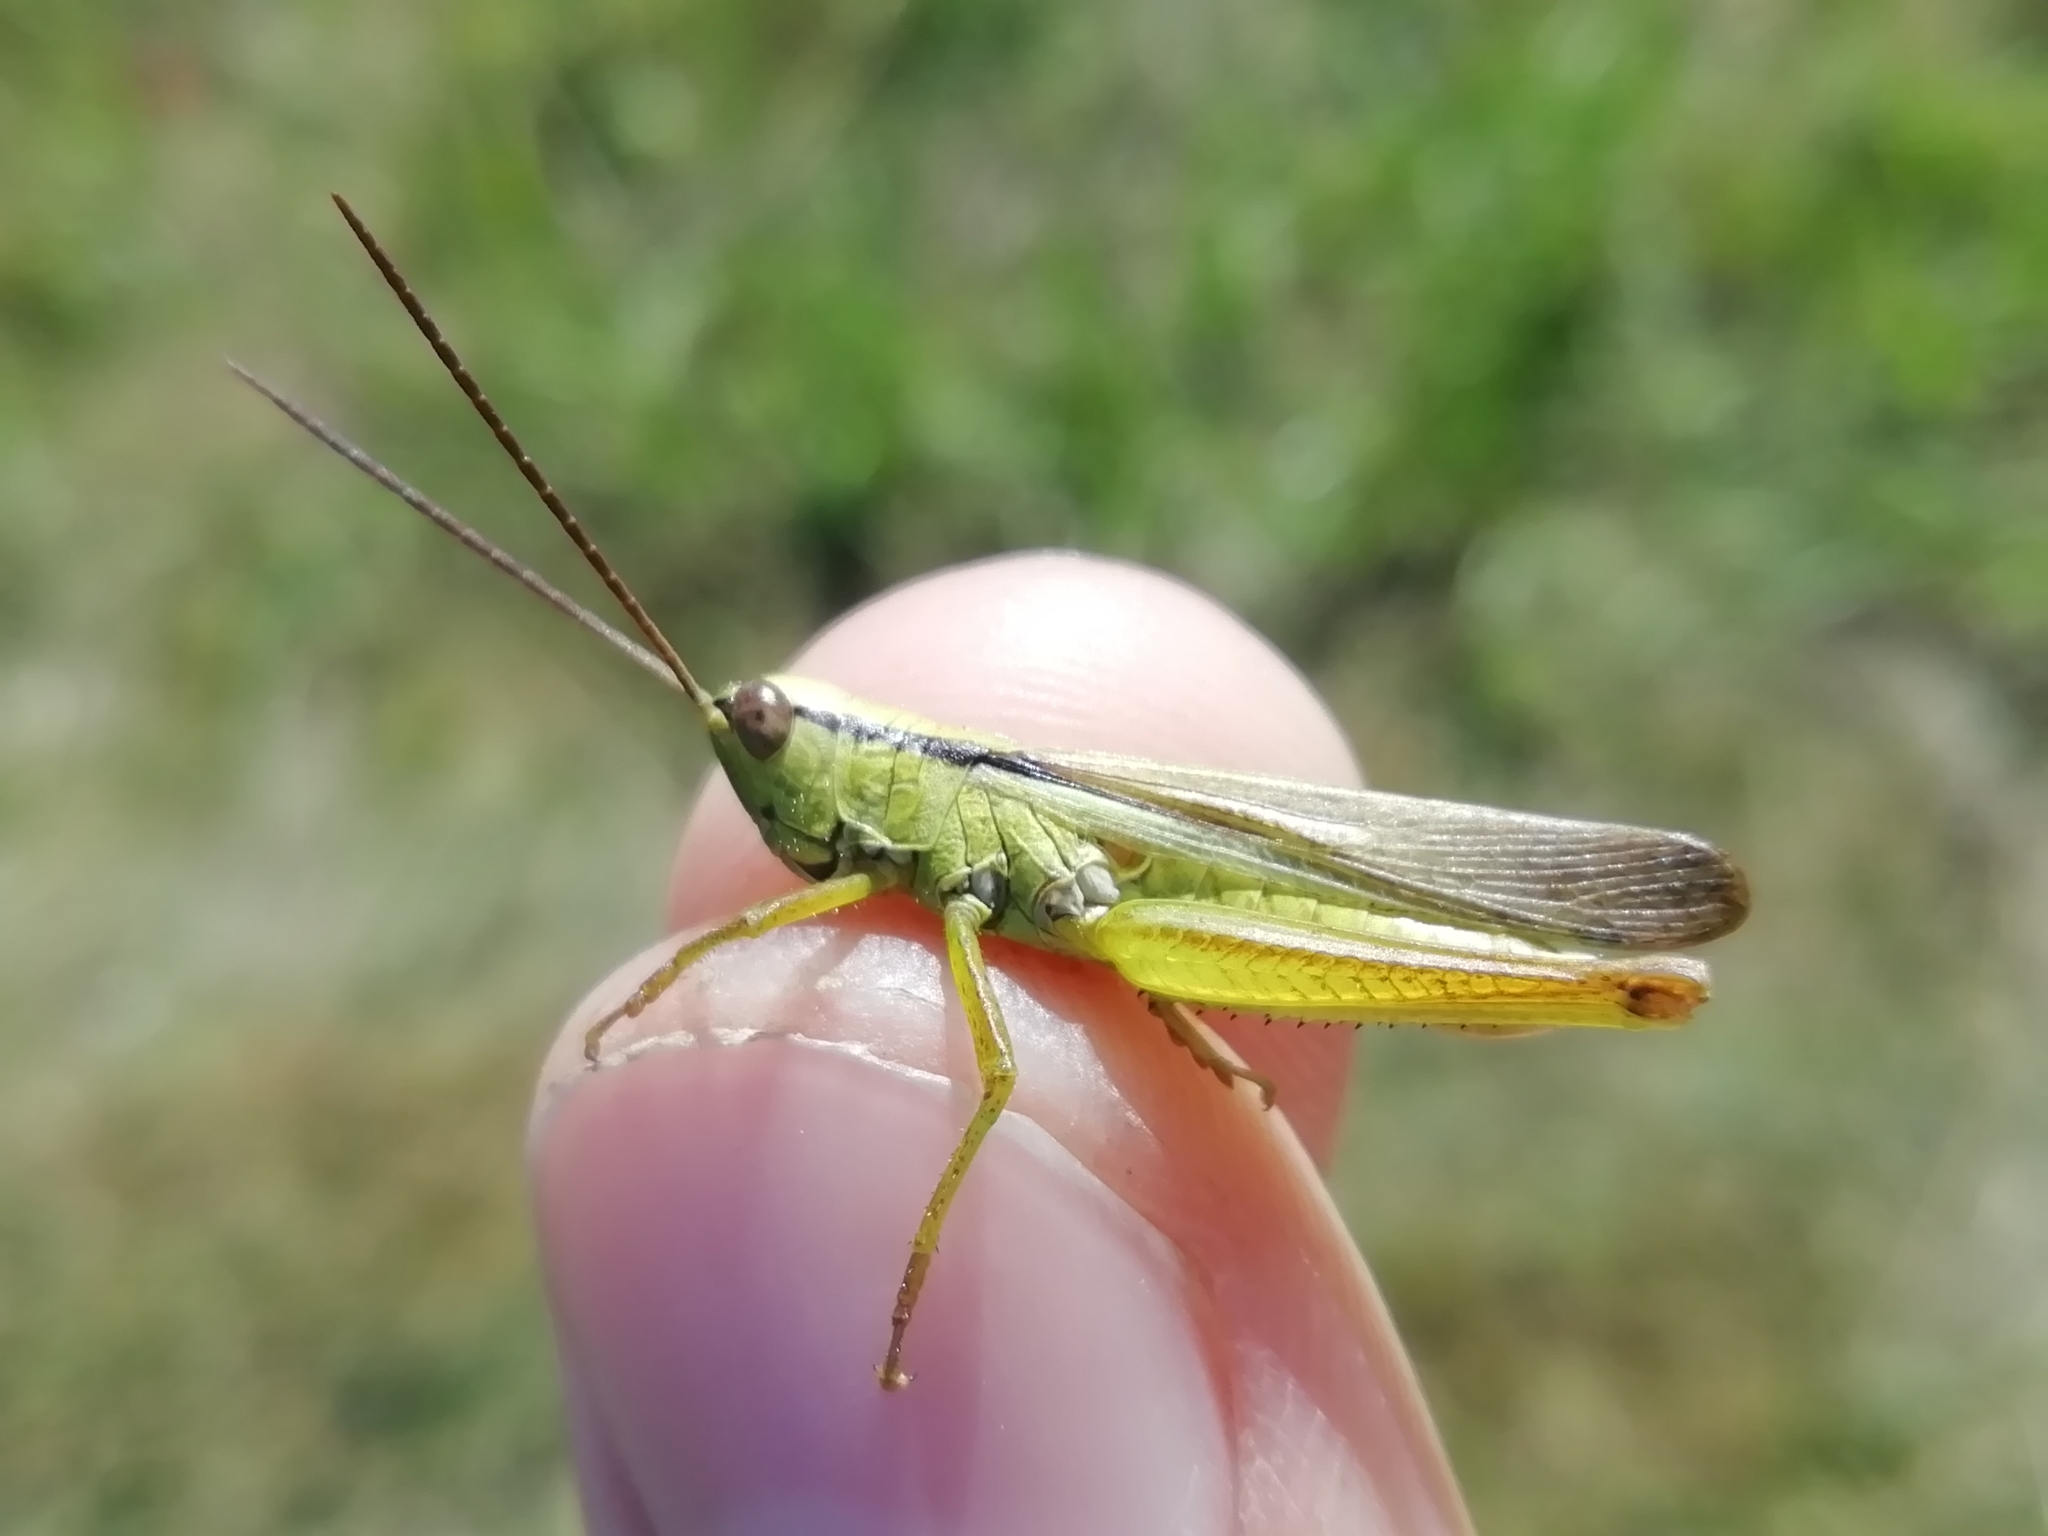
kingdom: Animalia
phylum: Arthropoda
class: Insecta
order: Orthoptera
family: Acrididae
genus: Mecostethus
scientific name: Mecostethus parapleurus
